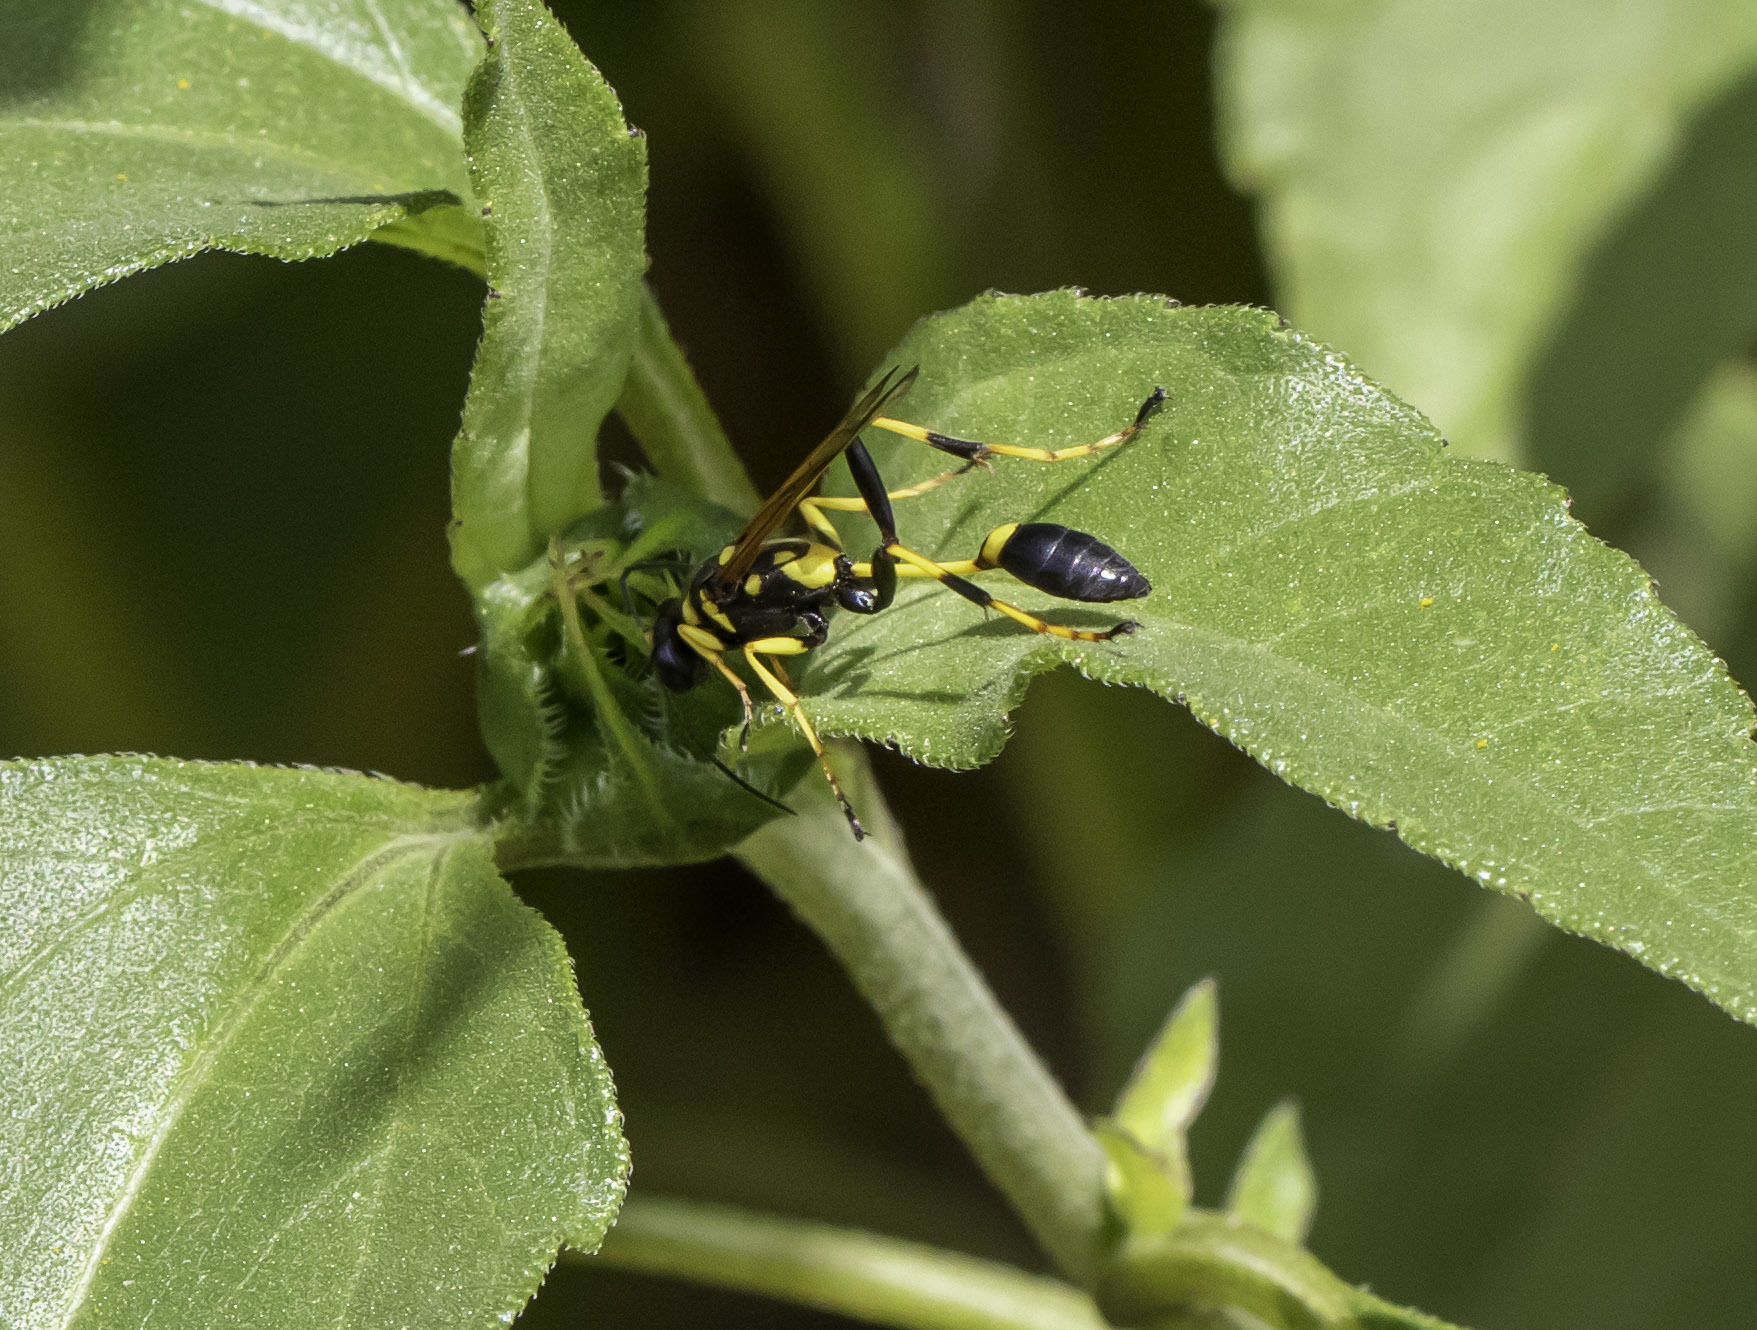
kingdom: Animalia
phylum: Arthropoda
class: Insecta
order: Hymenoptera
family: Sphecidae
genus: Sceliphron
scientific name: Sceliphron caementarium
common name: Mud dauber
